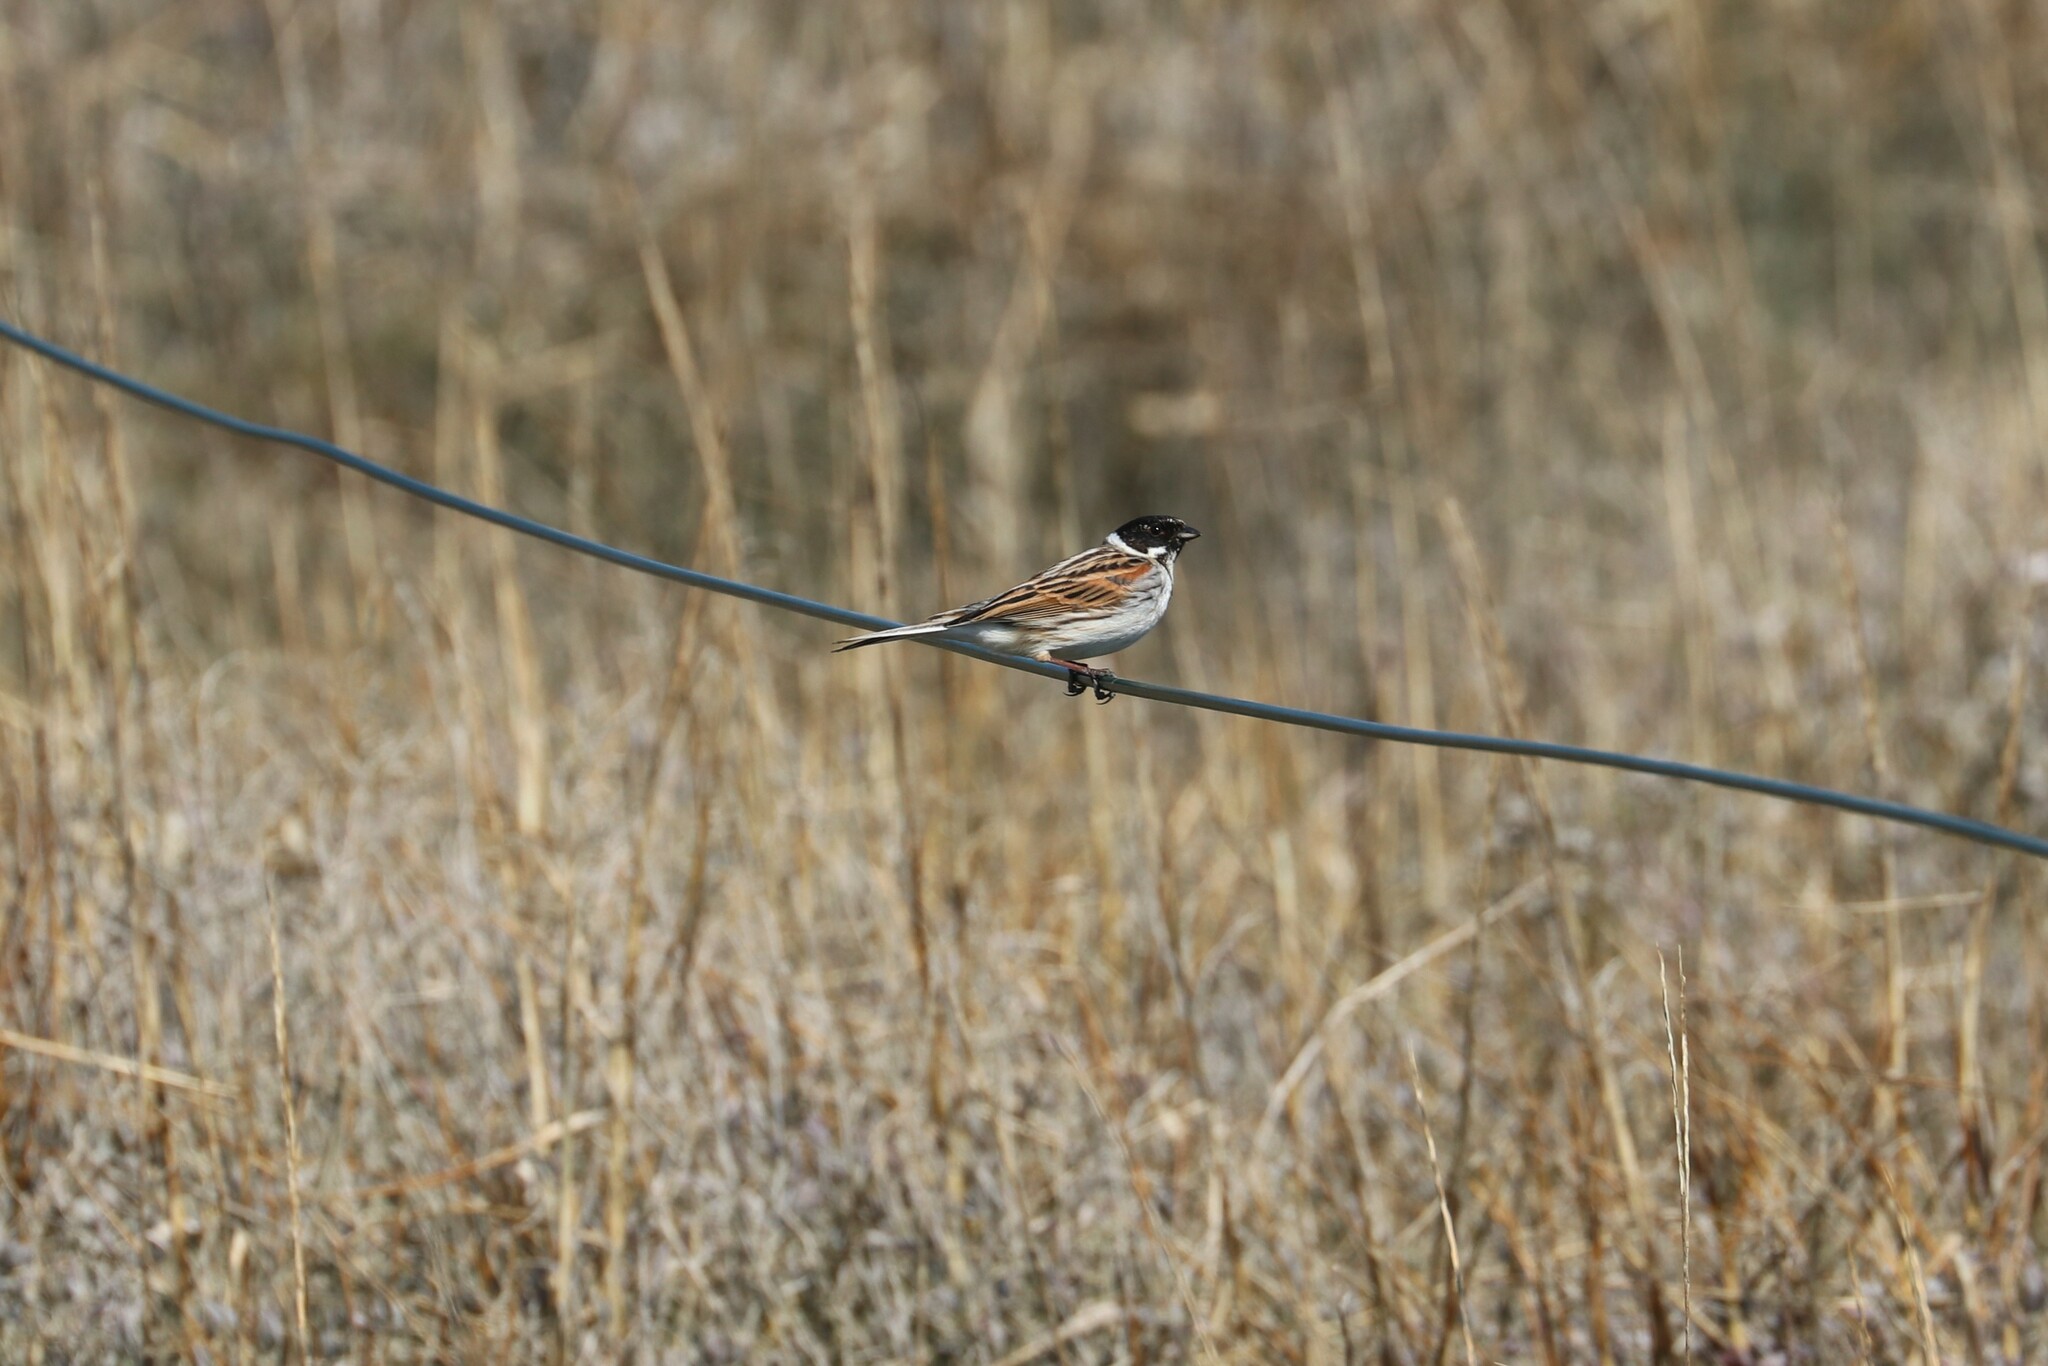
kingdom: Animalia
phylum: Chordata
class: Aves
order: Passeriformes
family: Emberizidae
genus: Emberiza
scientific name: Emberiza schoeniclus
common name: Reed bunting
